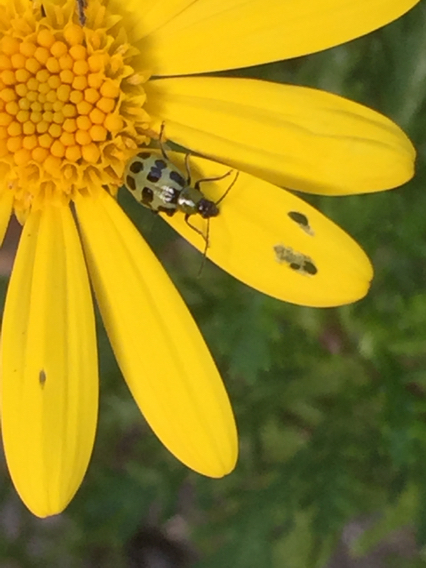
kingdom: Animalia
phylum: Arthropoda
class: Insecta
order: Coleoptera
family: Chrysomelidae
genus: Diabrotica
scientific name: Diabrotica undecimpunctata
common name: Spotted cucumber beetle
